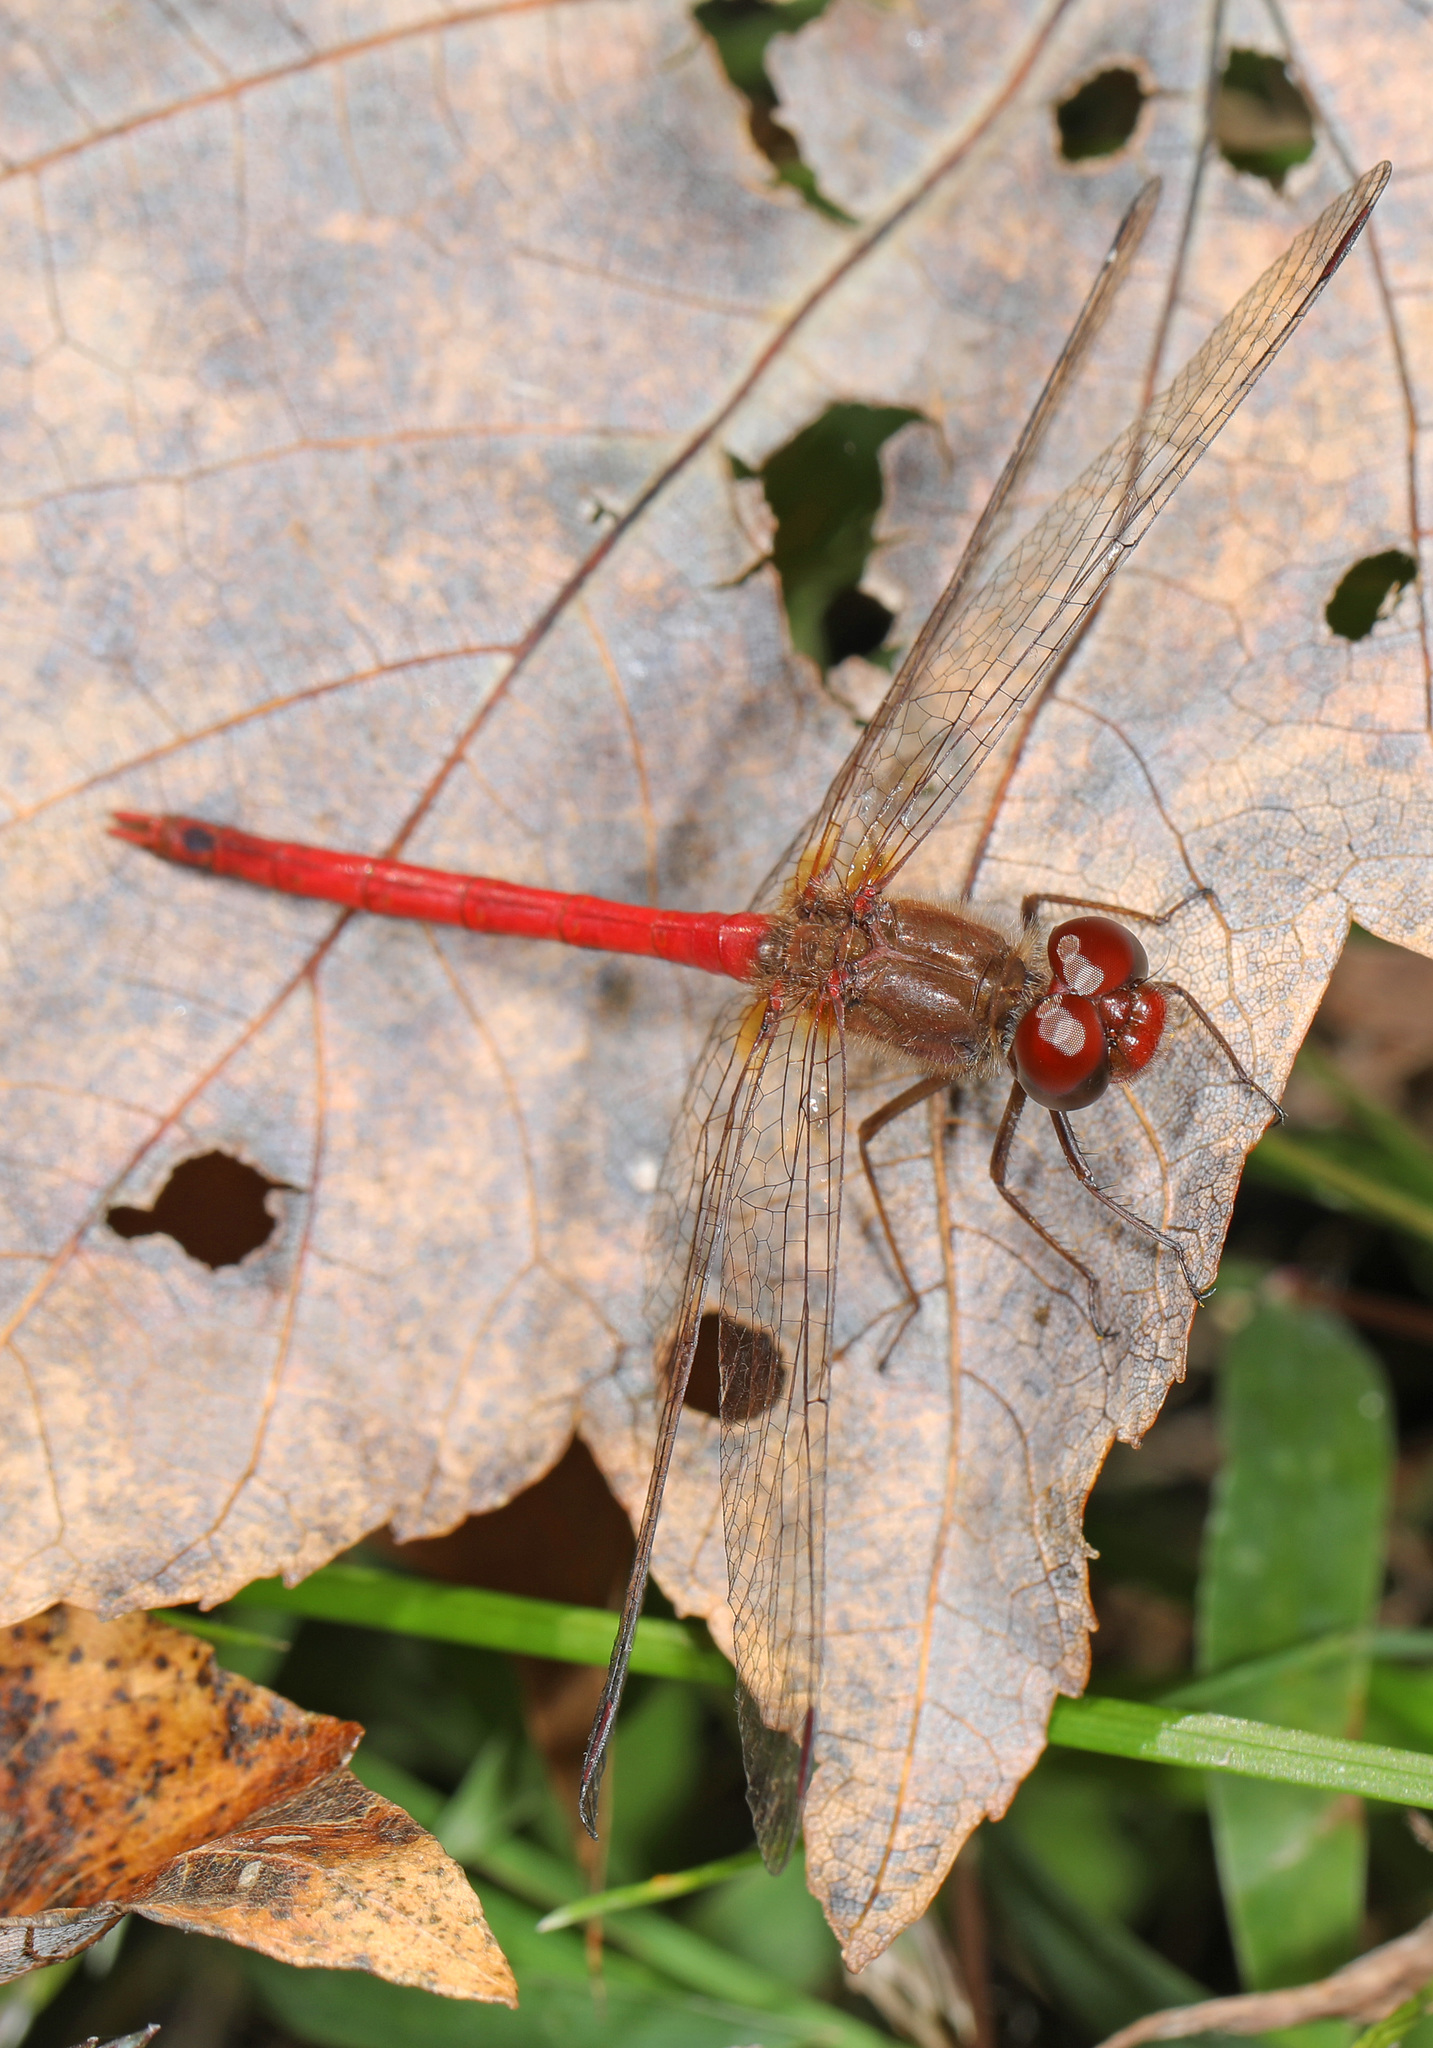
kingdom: Animalia
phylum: Arthropoda
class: Insecta
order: Odonata
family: Libellulidae
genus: Sympetrum
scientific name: Sympetrum vicinum
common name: Autumn meadowhawk
